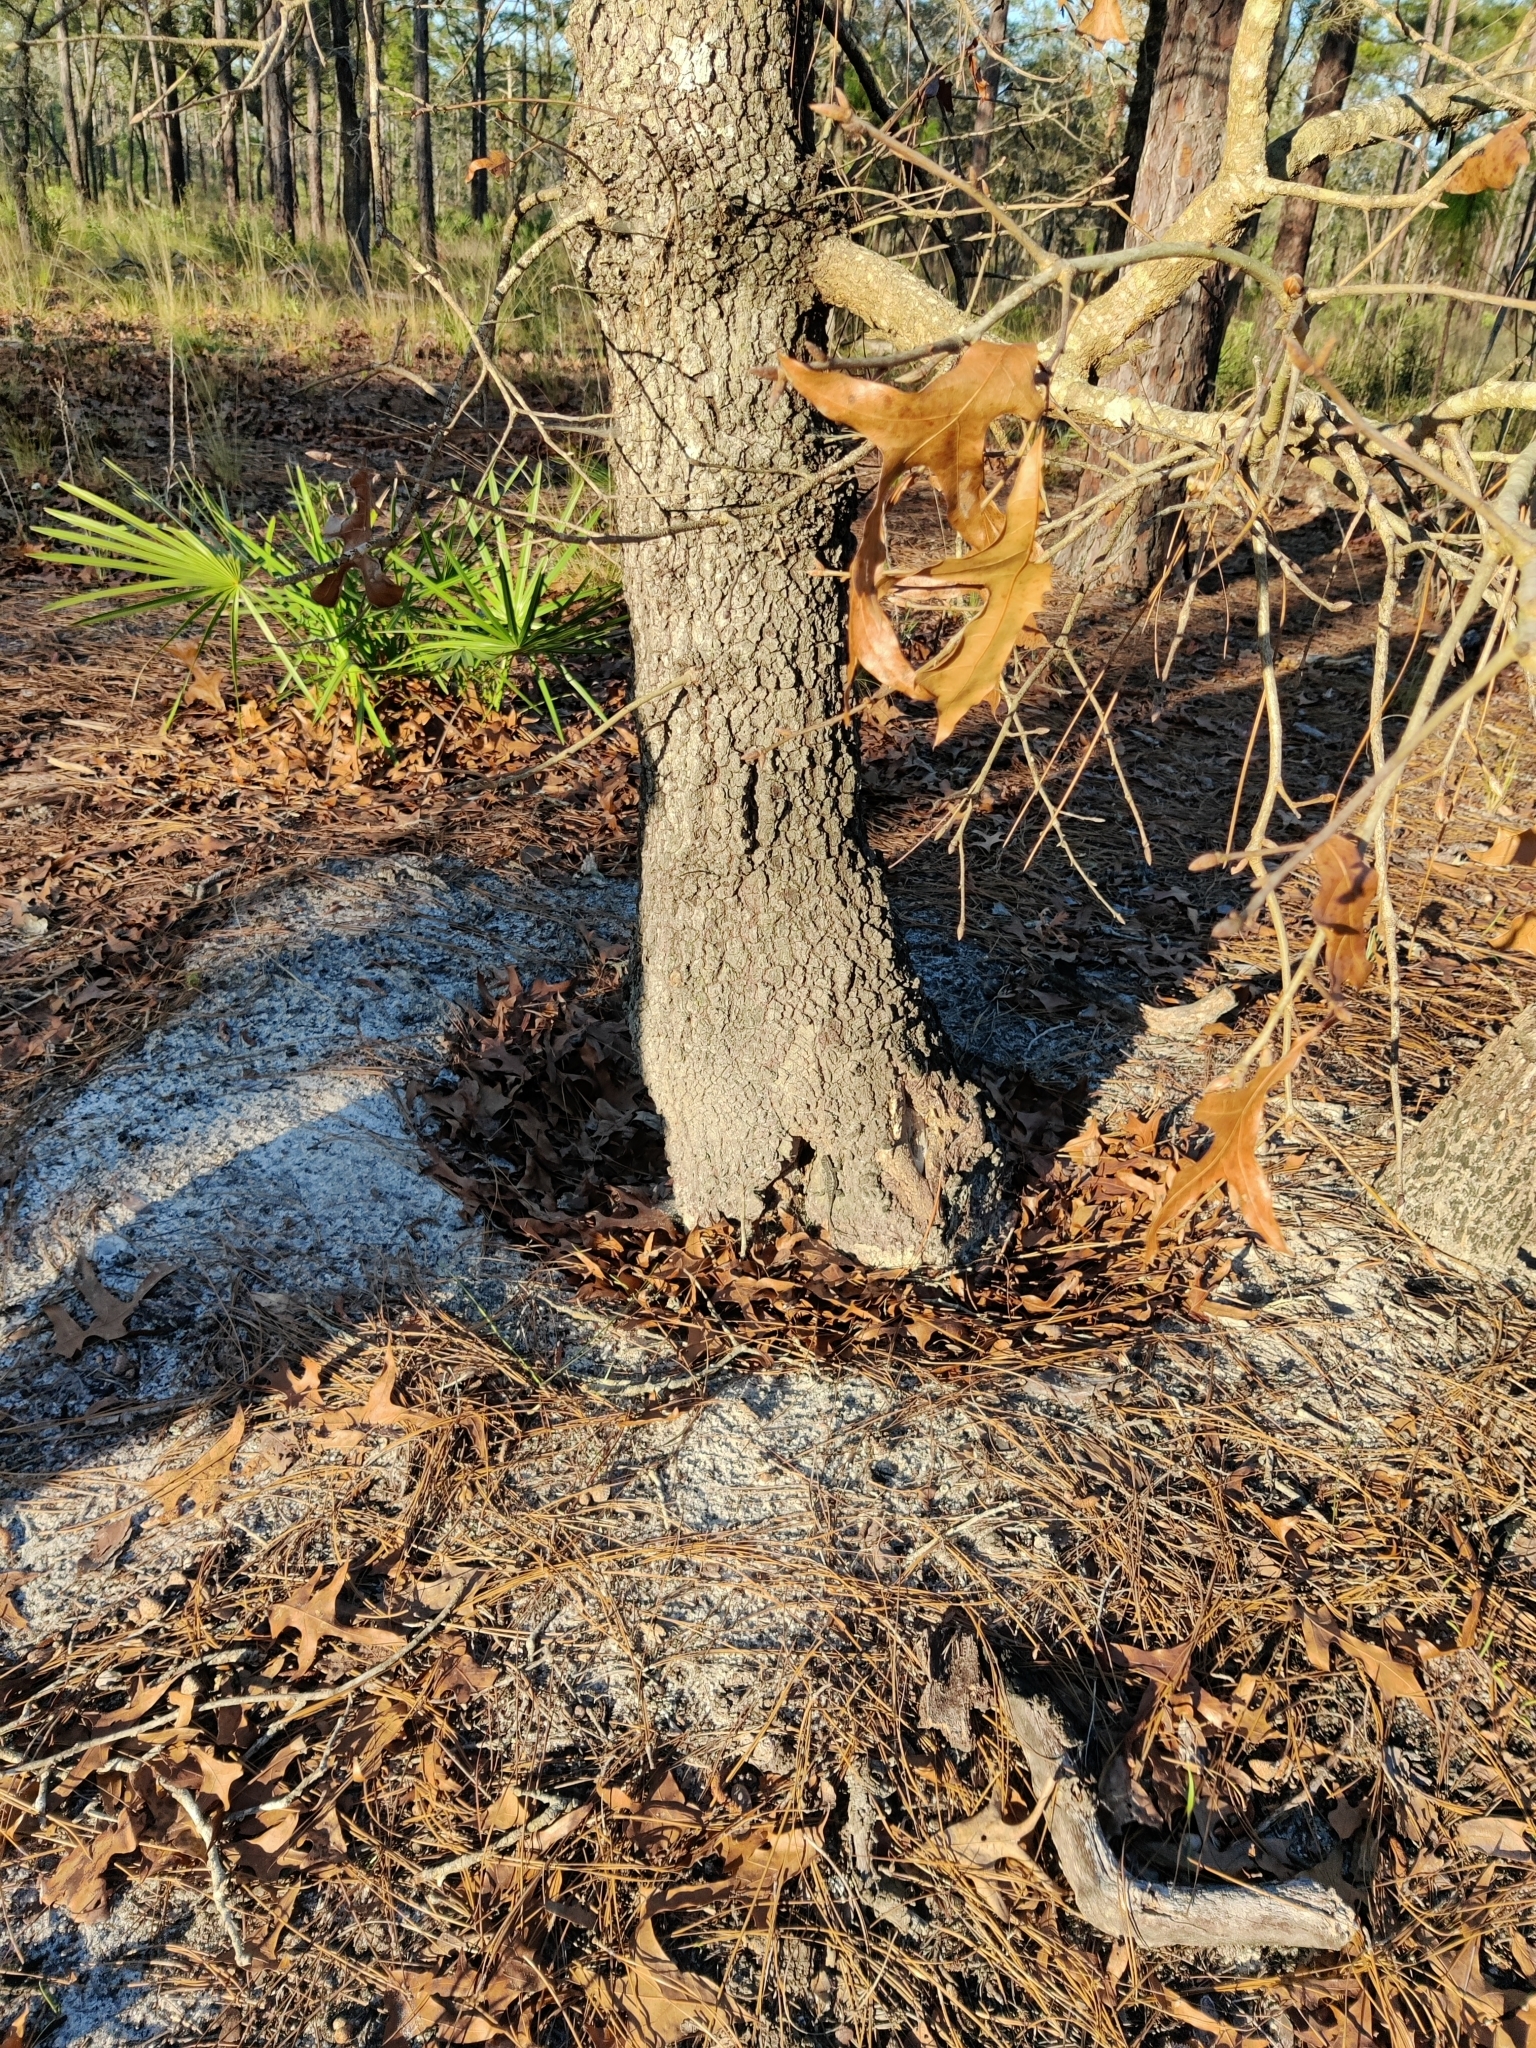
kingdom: Animalia
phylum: Chordata
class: Squamata
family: Phrynosomatidae
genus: Sceloporus
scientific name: Sceloporus undulatus
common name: Eastern fence lizard
